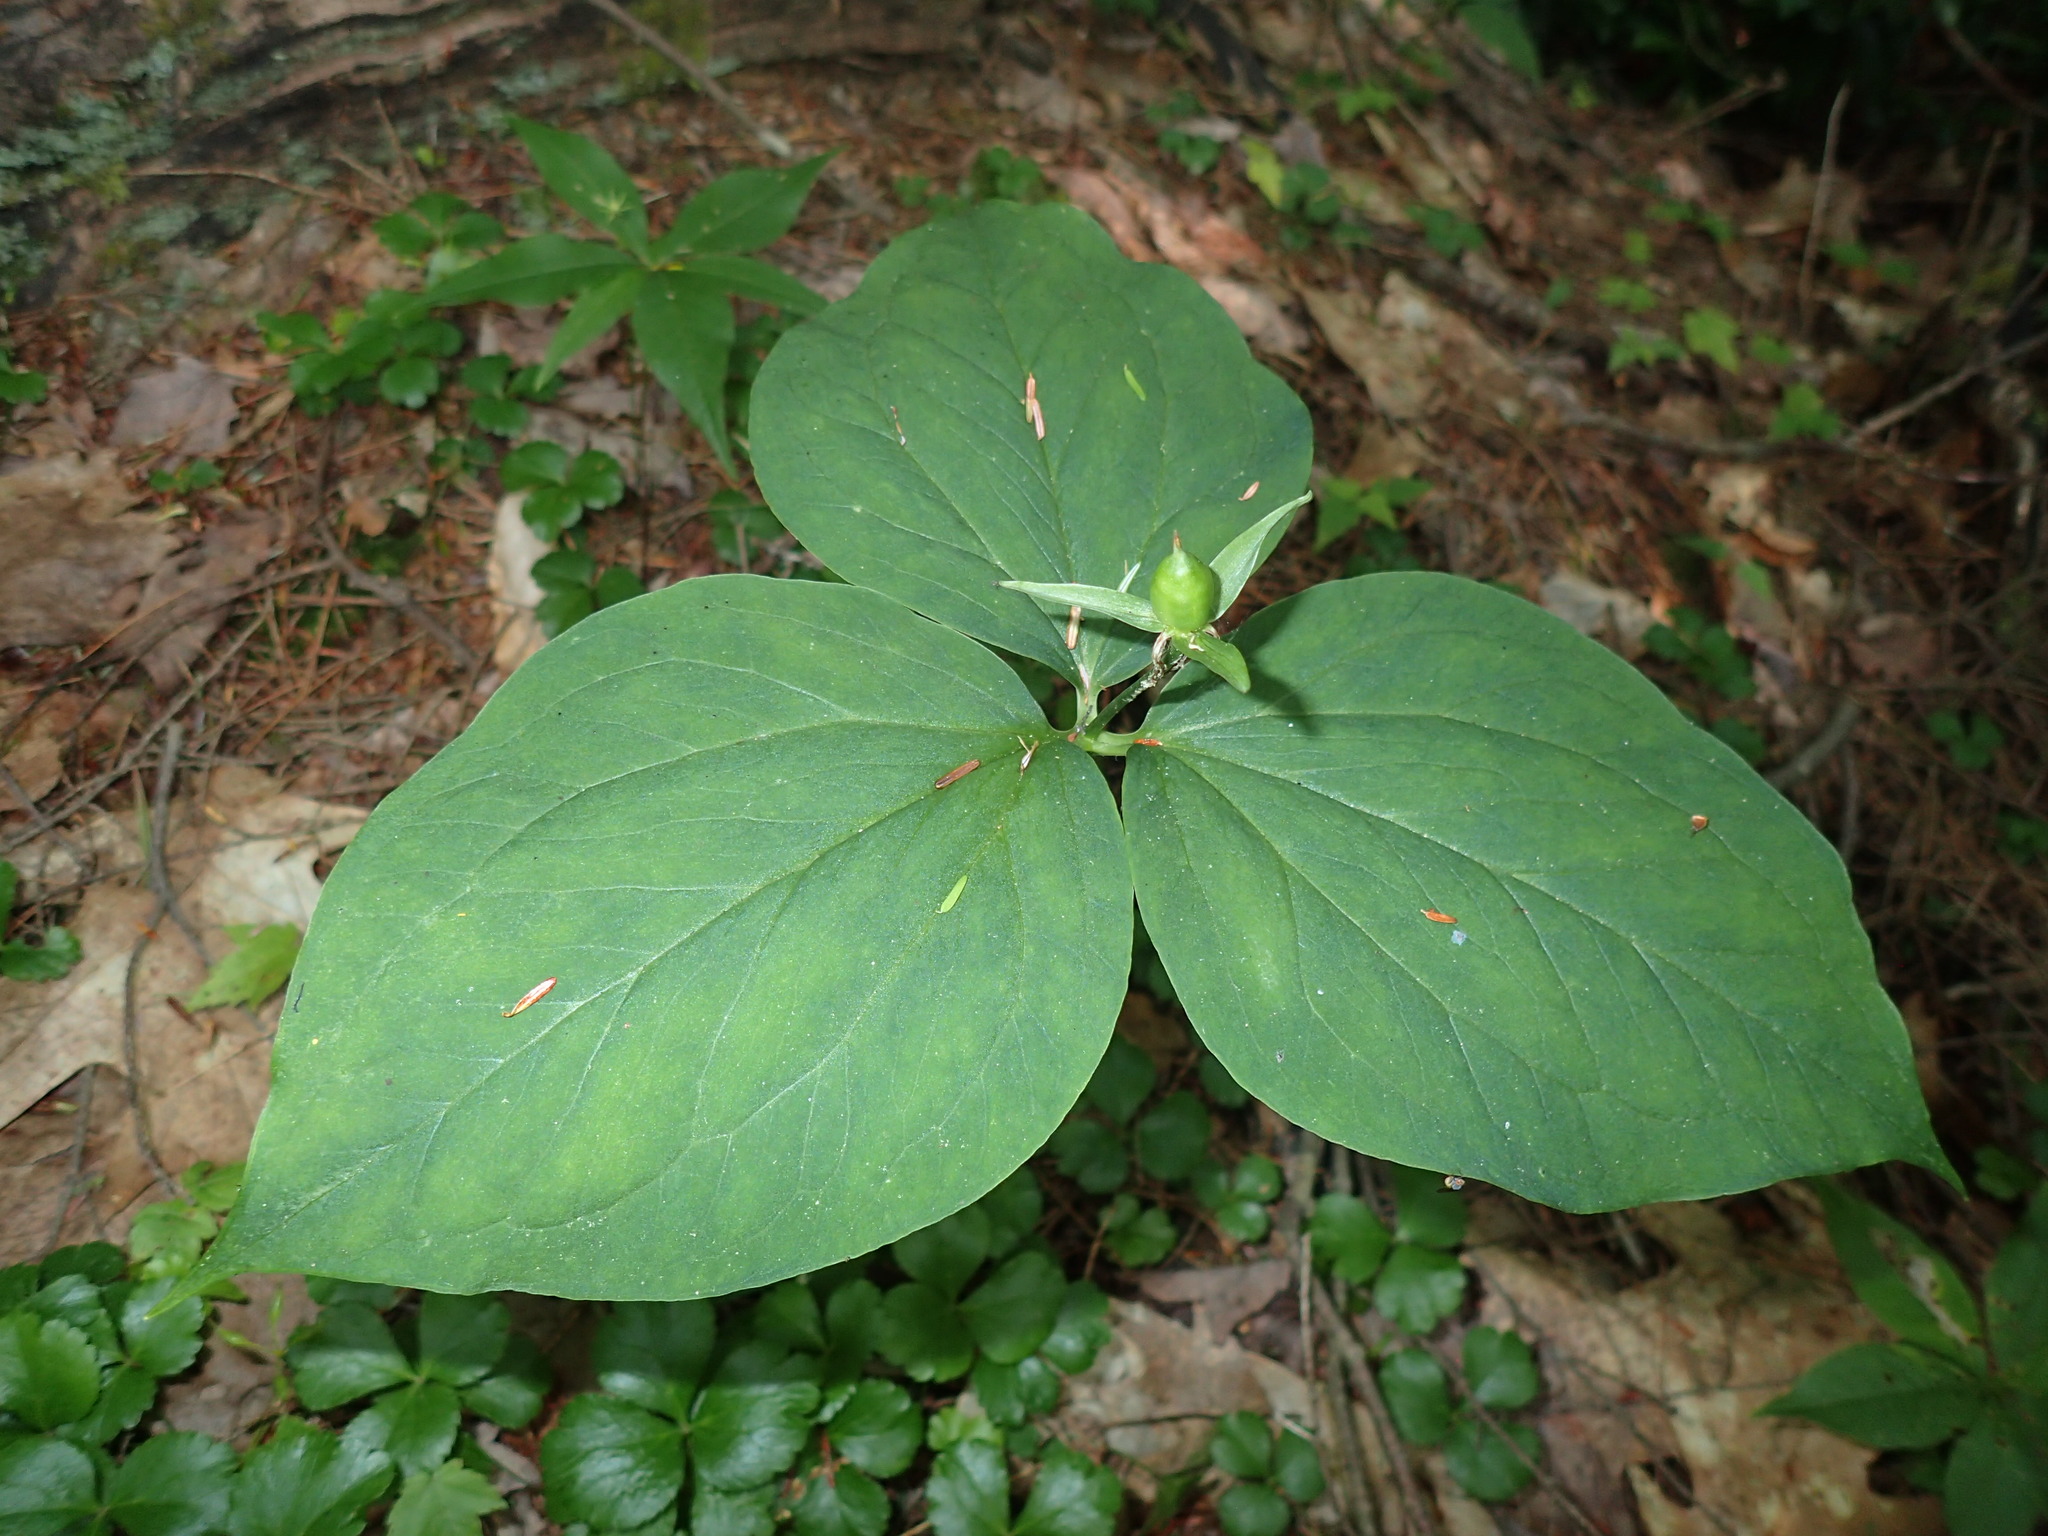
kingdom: Plantae
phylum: Tracheophyta
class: Liliopsida
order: Liliales
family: Melanthiaceae
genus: Trillium
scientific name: Trillium undulatum
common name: Paint trillium
